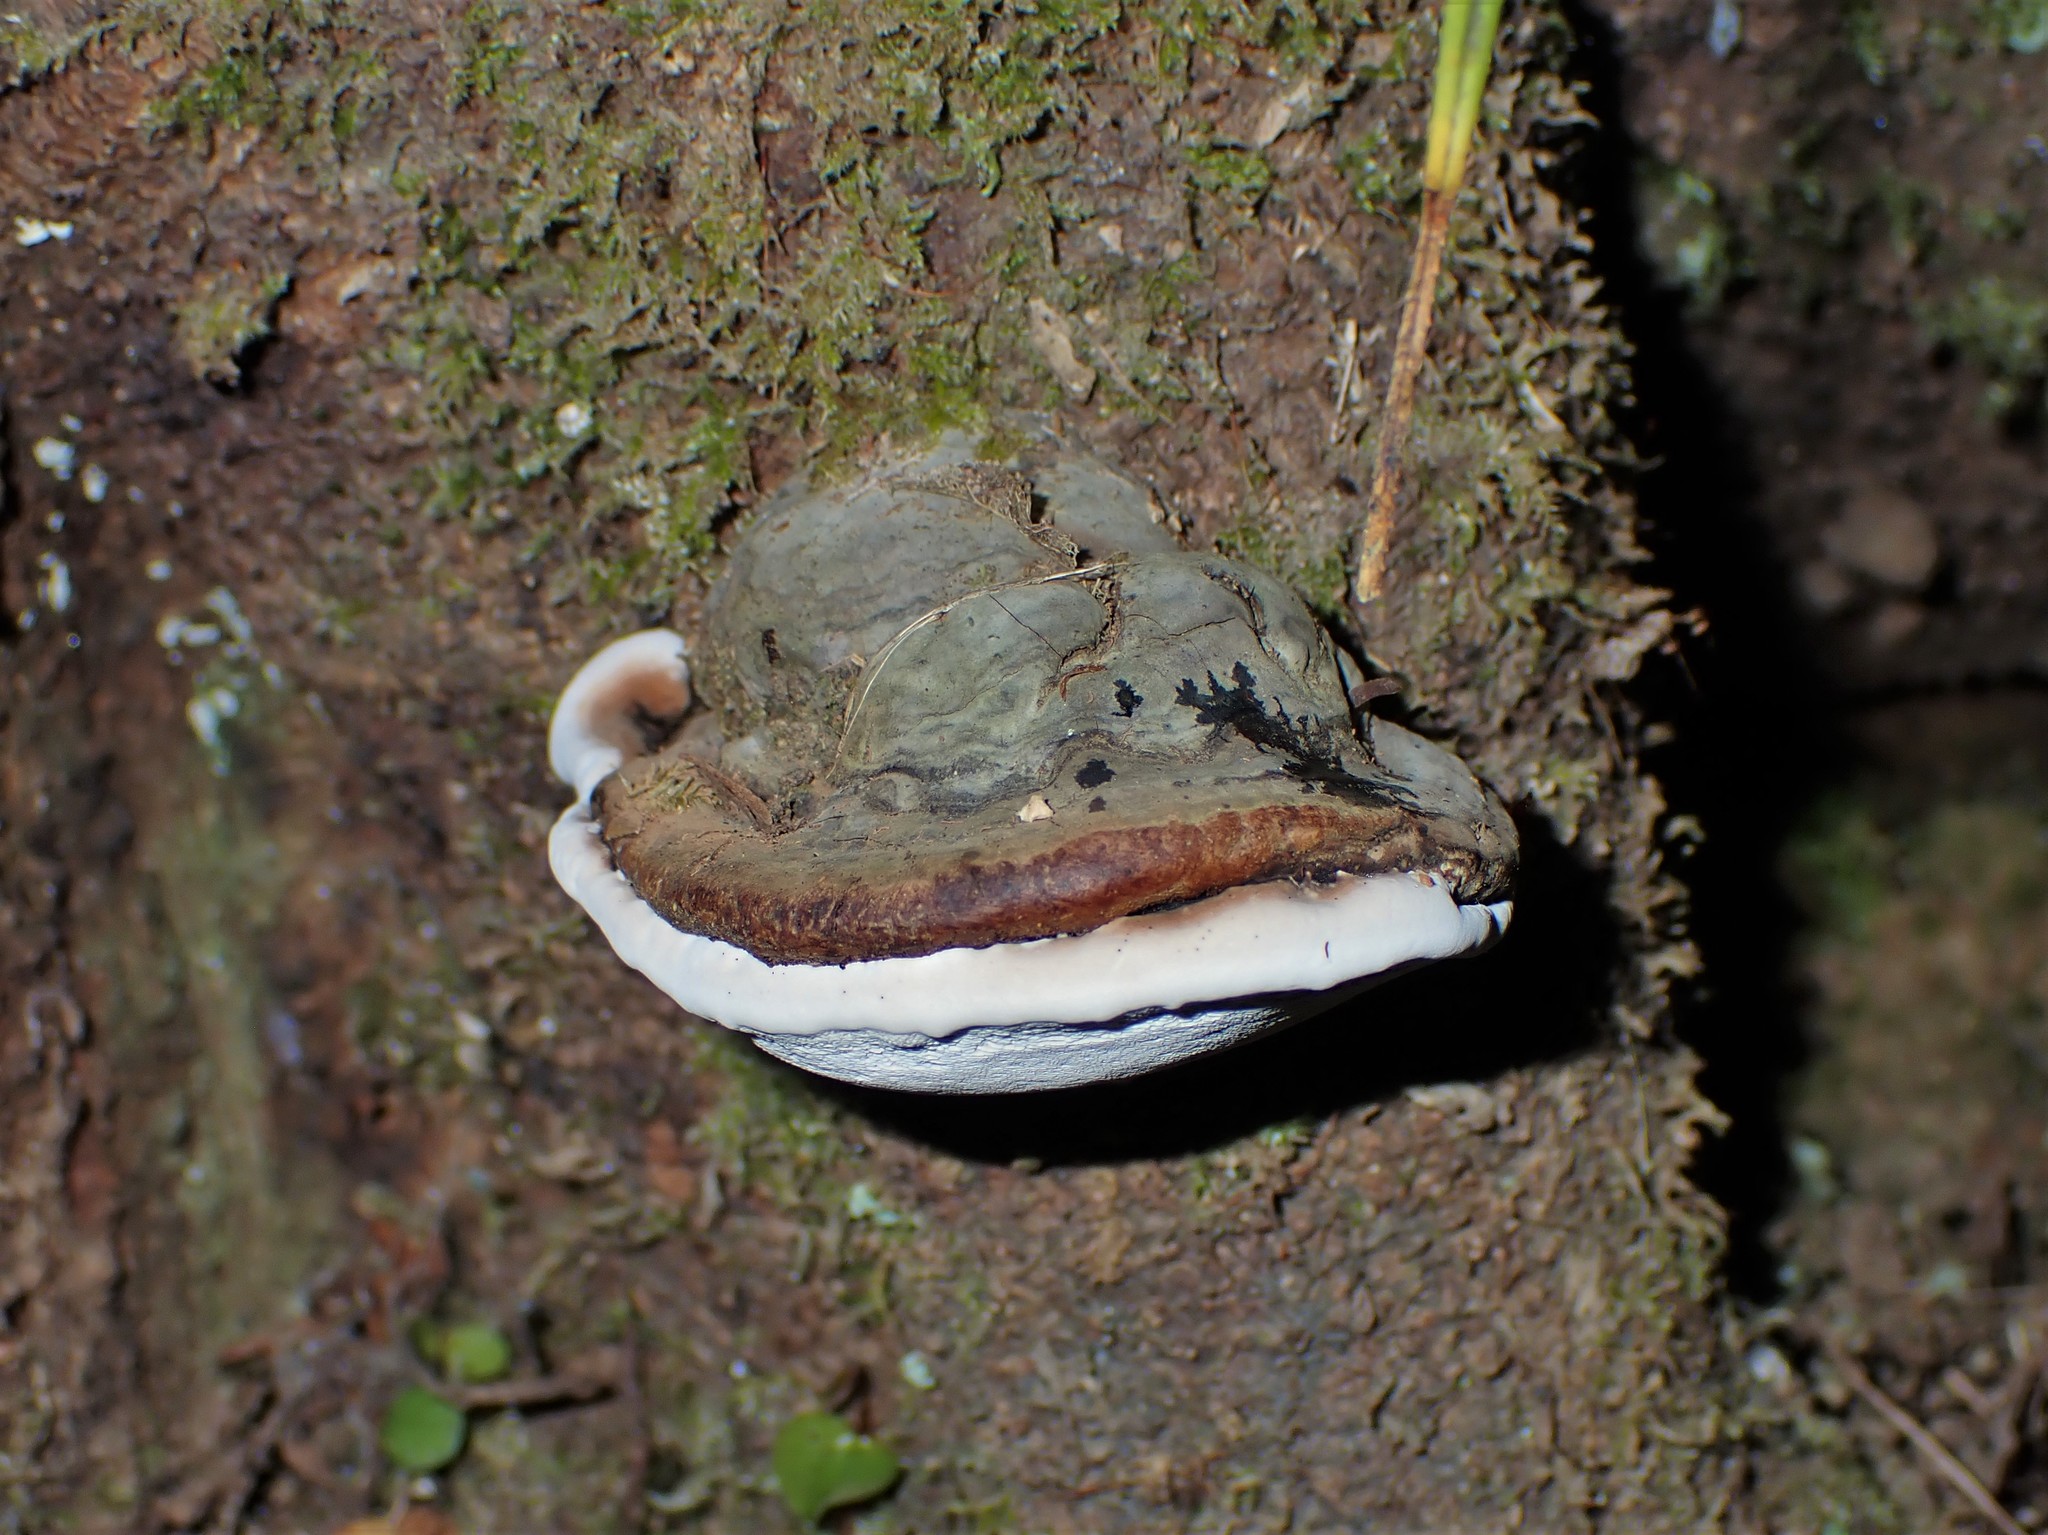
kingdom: Fungi
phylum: Basidiomycota
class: Agaricomycetes
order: Polyporales
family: Polyporaceae
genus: Ganoderma
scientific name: Ganoderma
